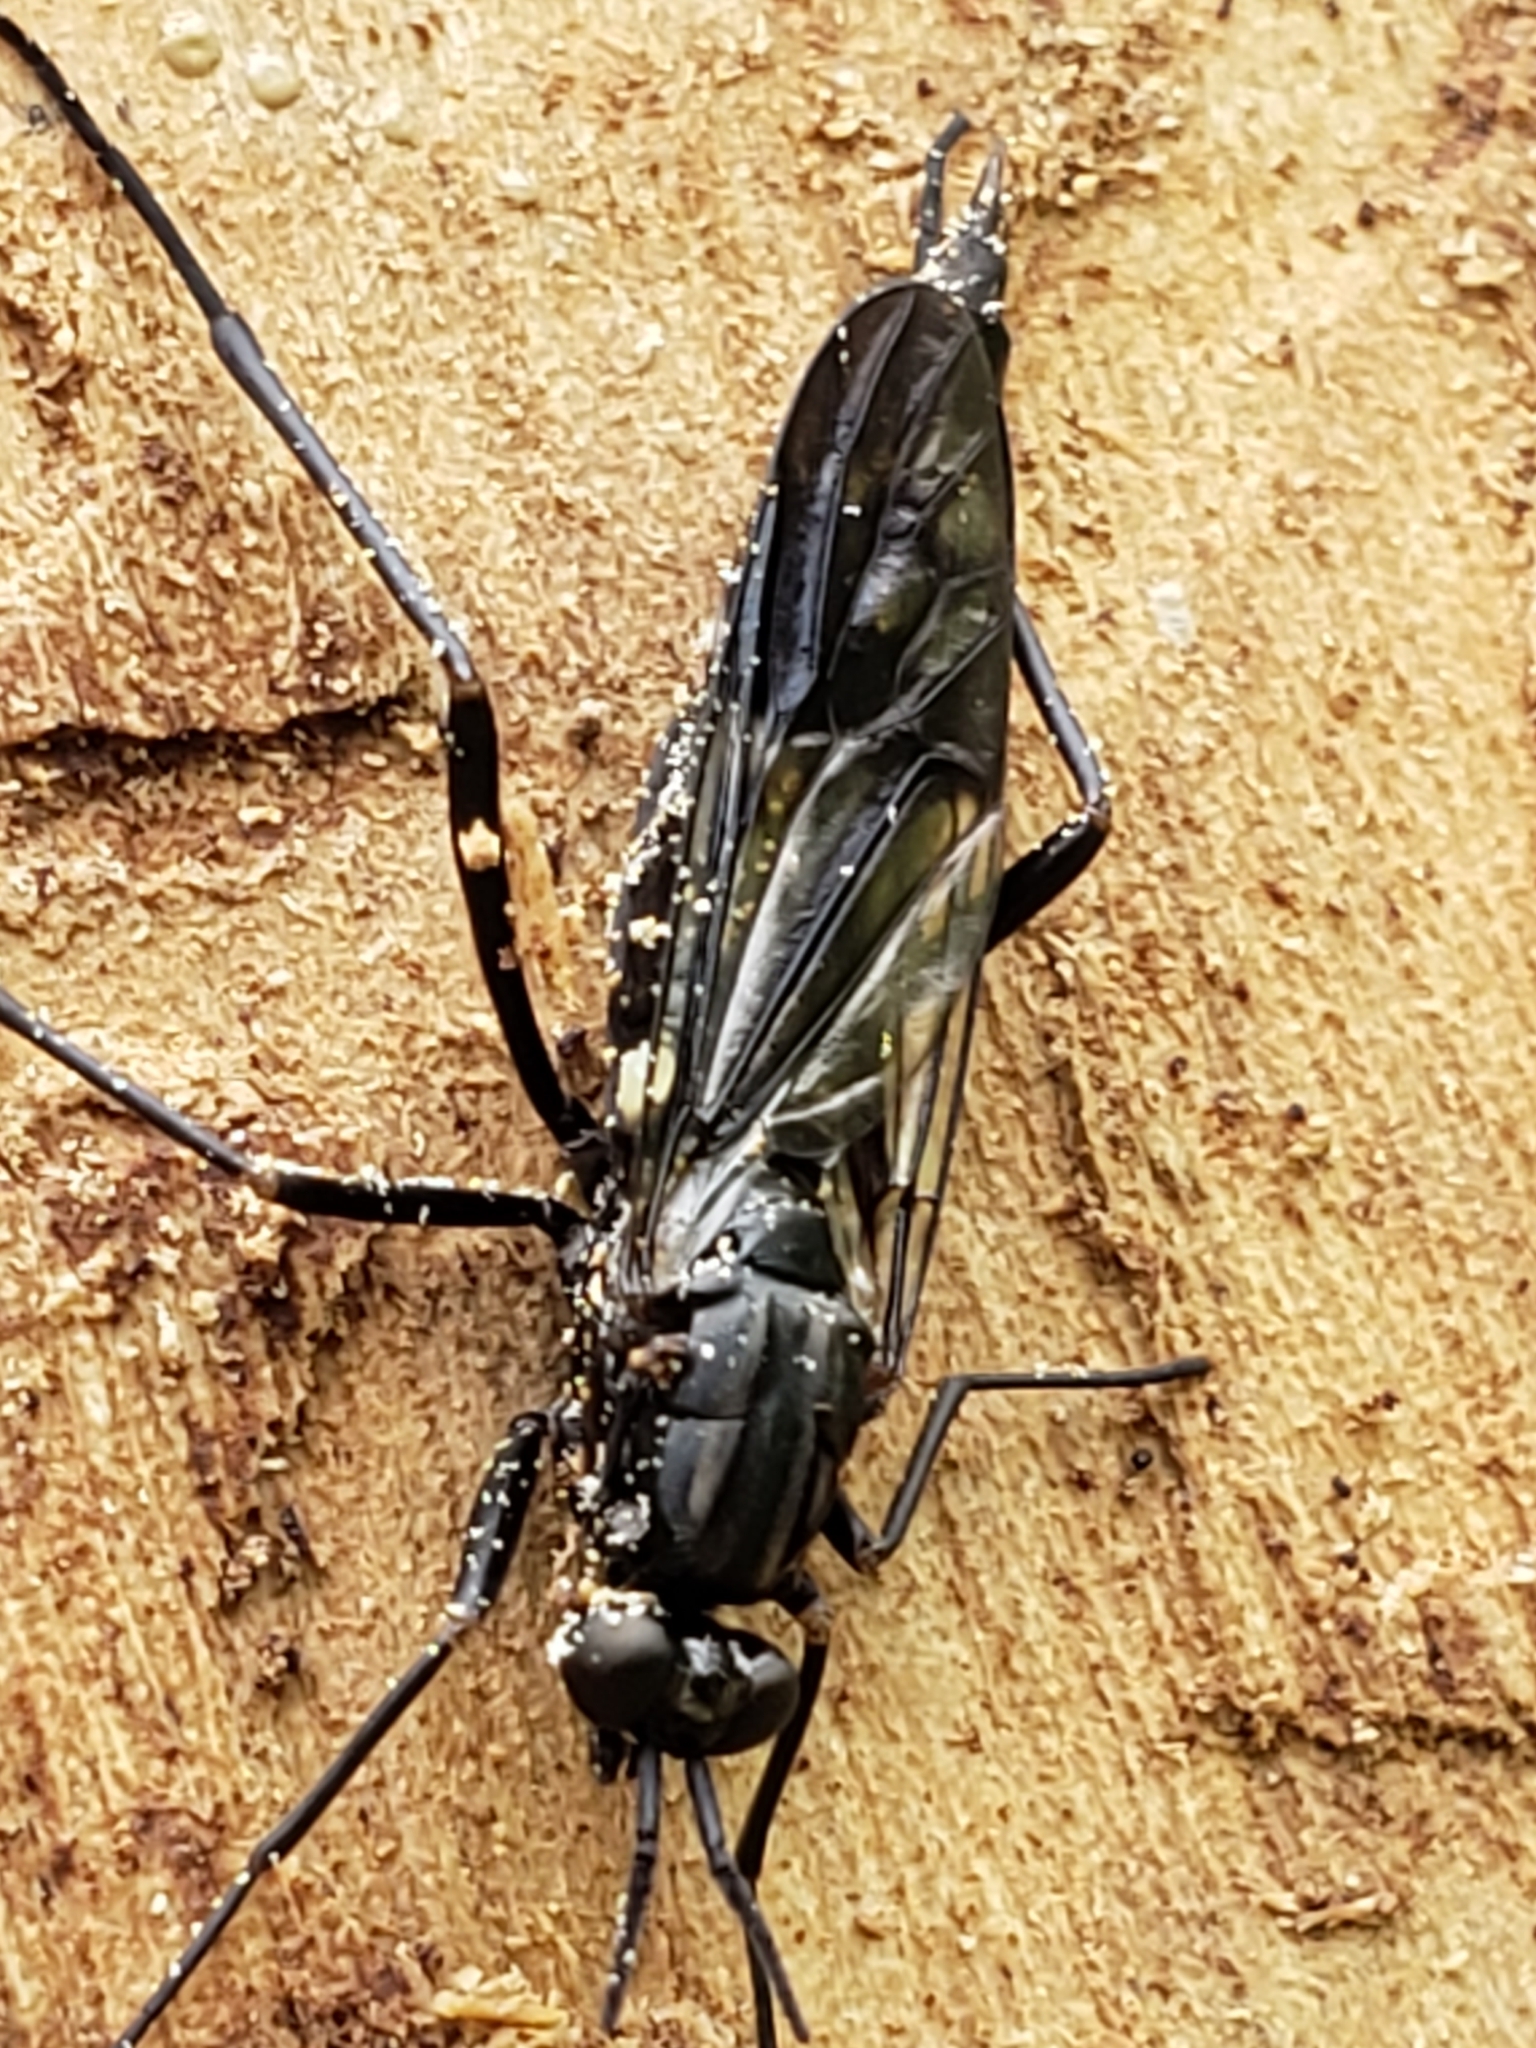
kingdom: Animalia
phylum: Arthropoda
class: Insecta
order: Diptera
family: Xylophagidae
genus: Xylophagus
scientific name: Xylophagus reflectens
